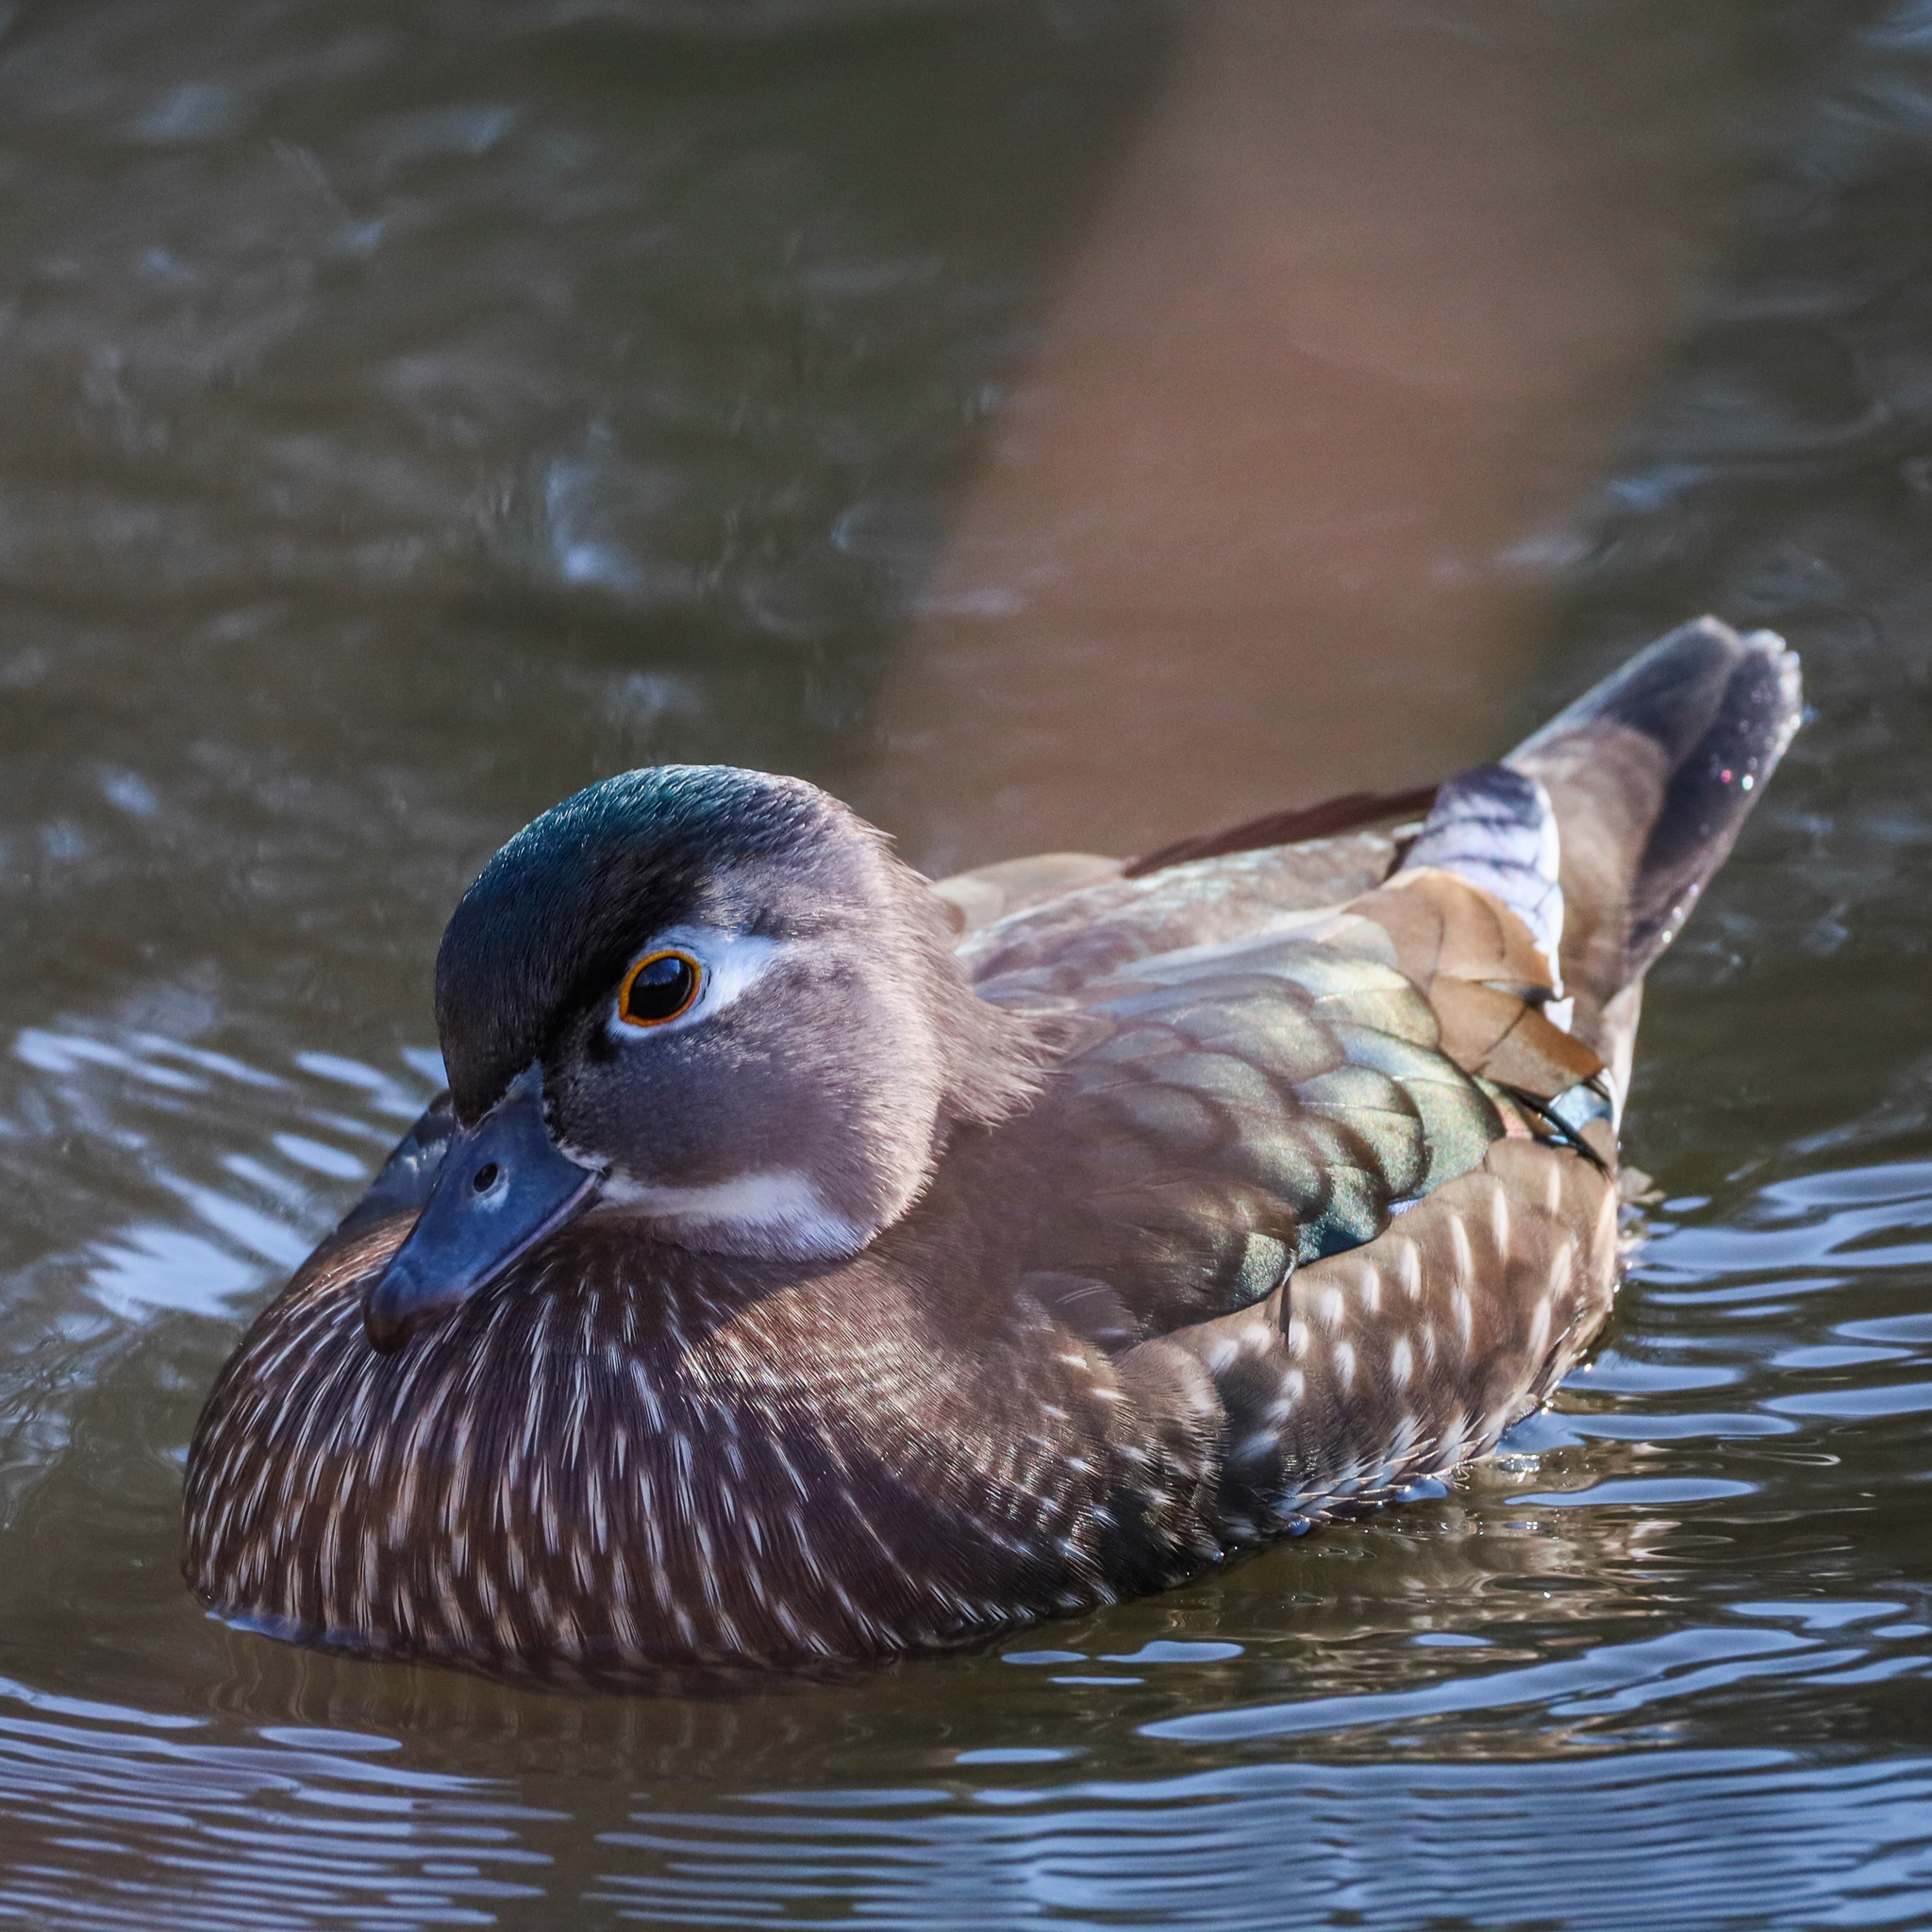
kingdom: Animalia
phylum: Chordata
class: Aves
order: Anseriformes
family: Anatidae
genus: Aix
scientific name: Aix sponsa
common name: Wood duck
